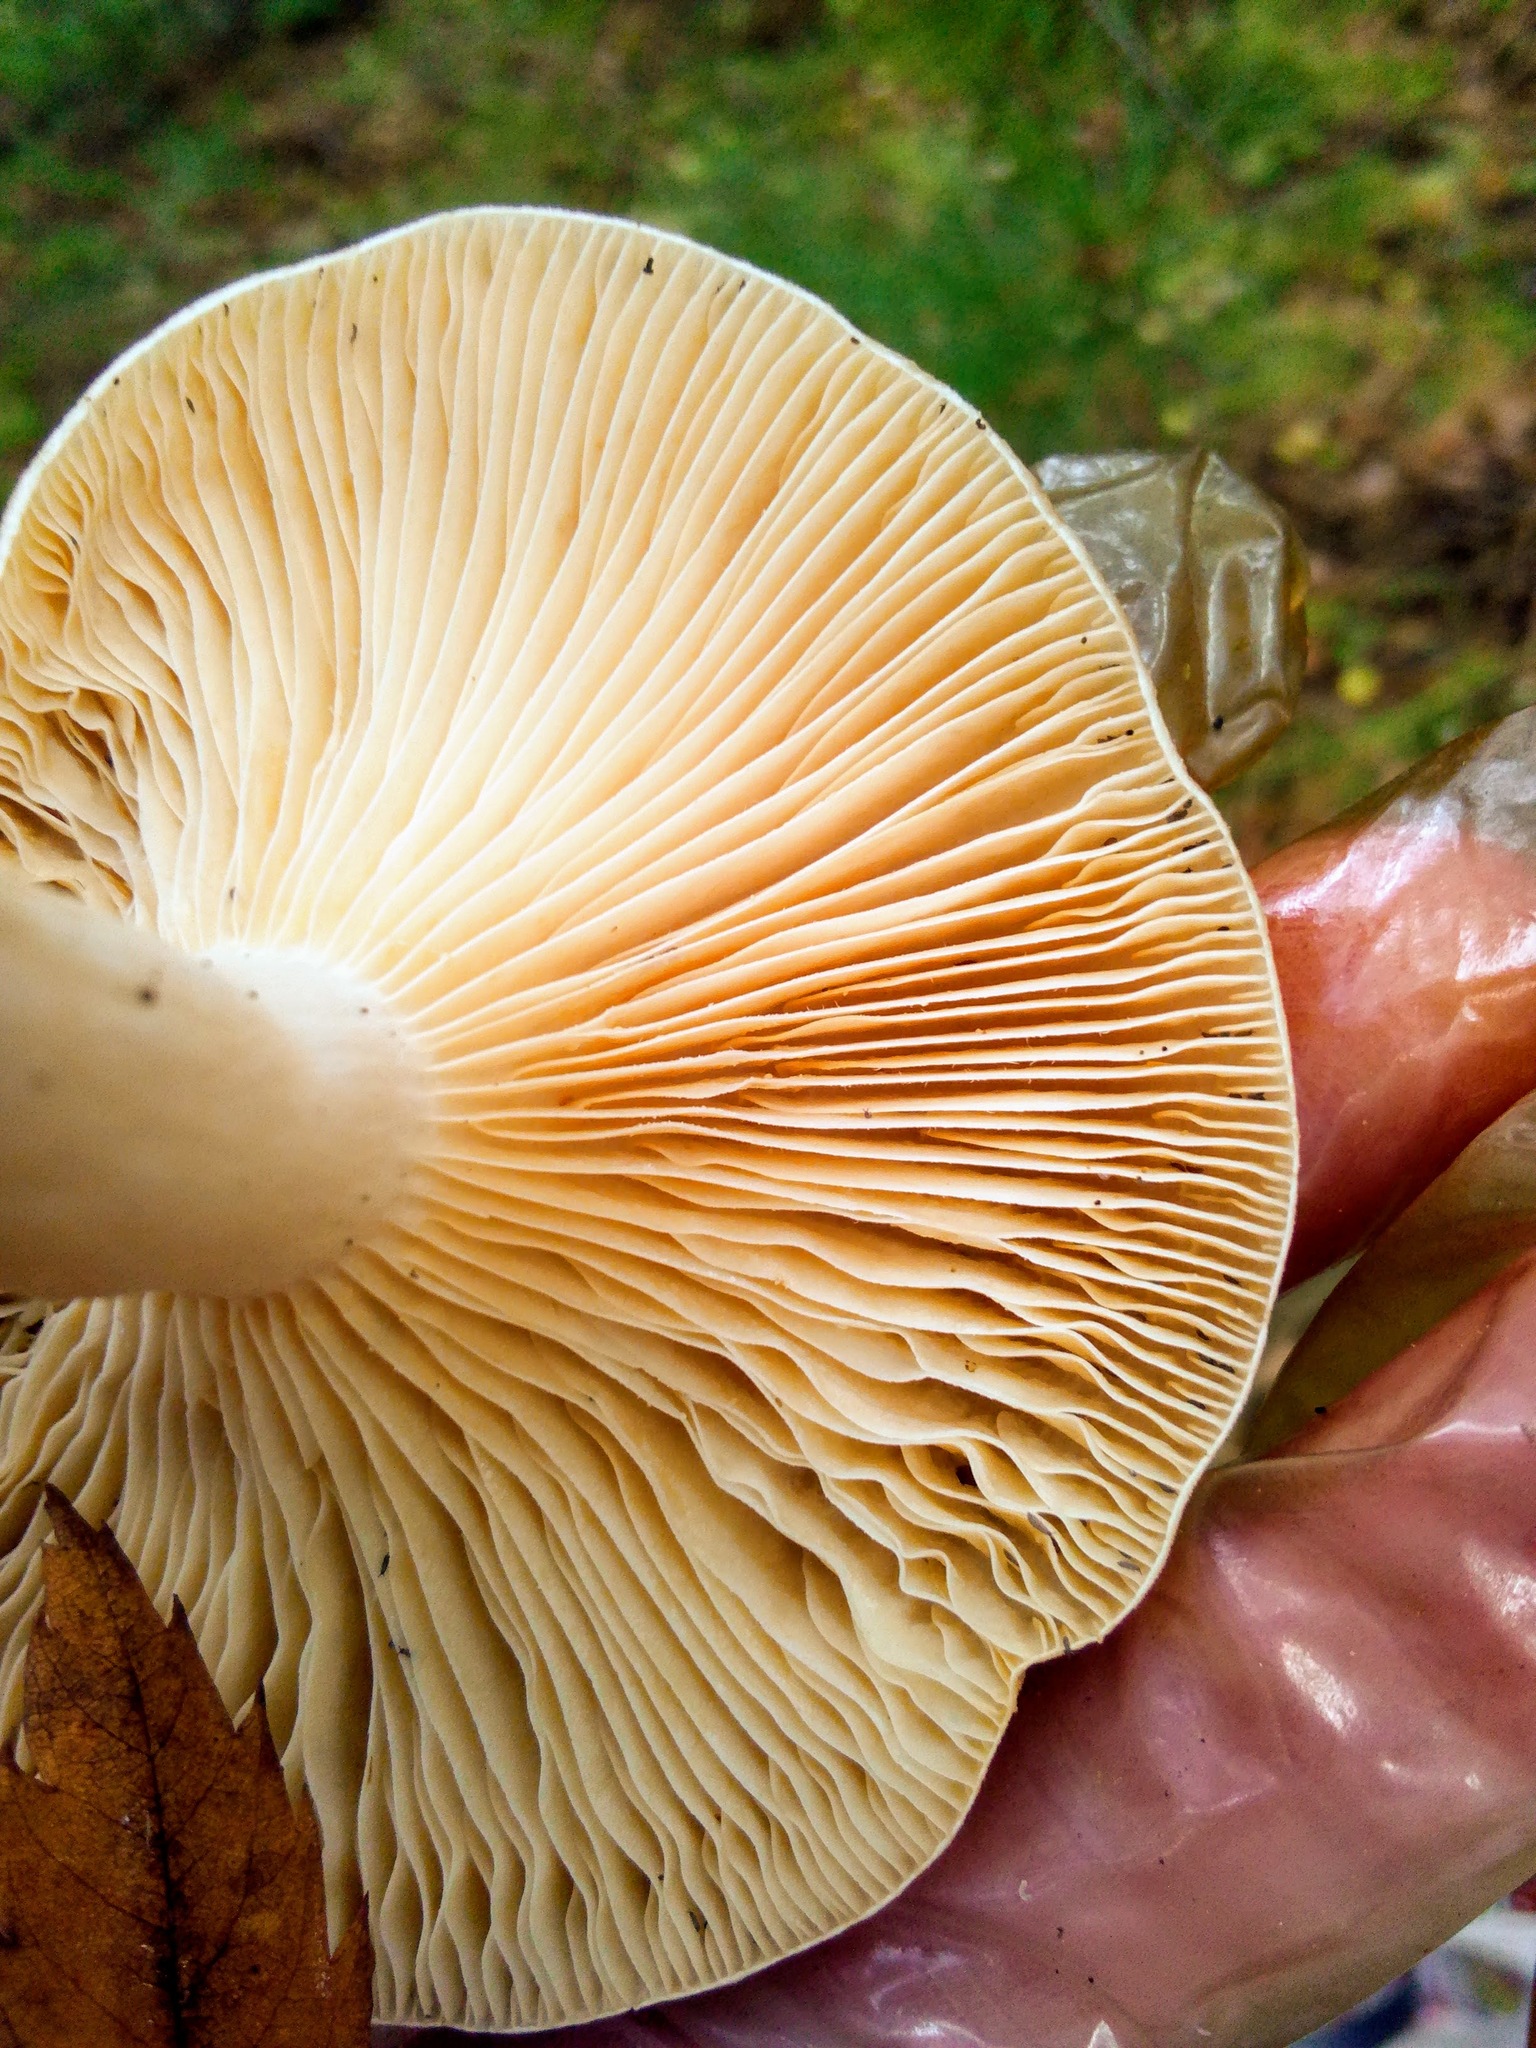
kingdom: Fungi
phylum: Basidiomycota
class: Agaricomycetes
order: Russulales
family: Russulaceae
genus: Lactarius
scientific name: Lactarius utilis
